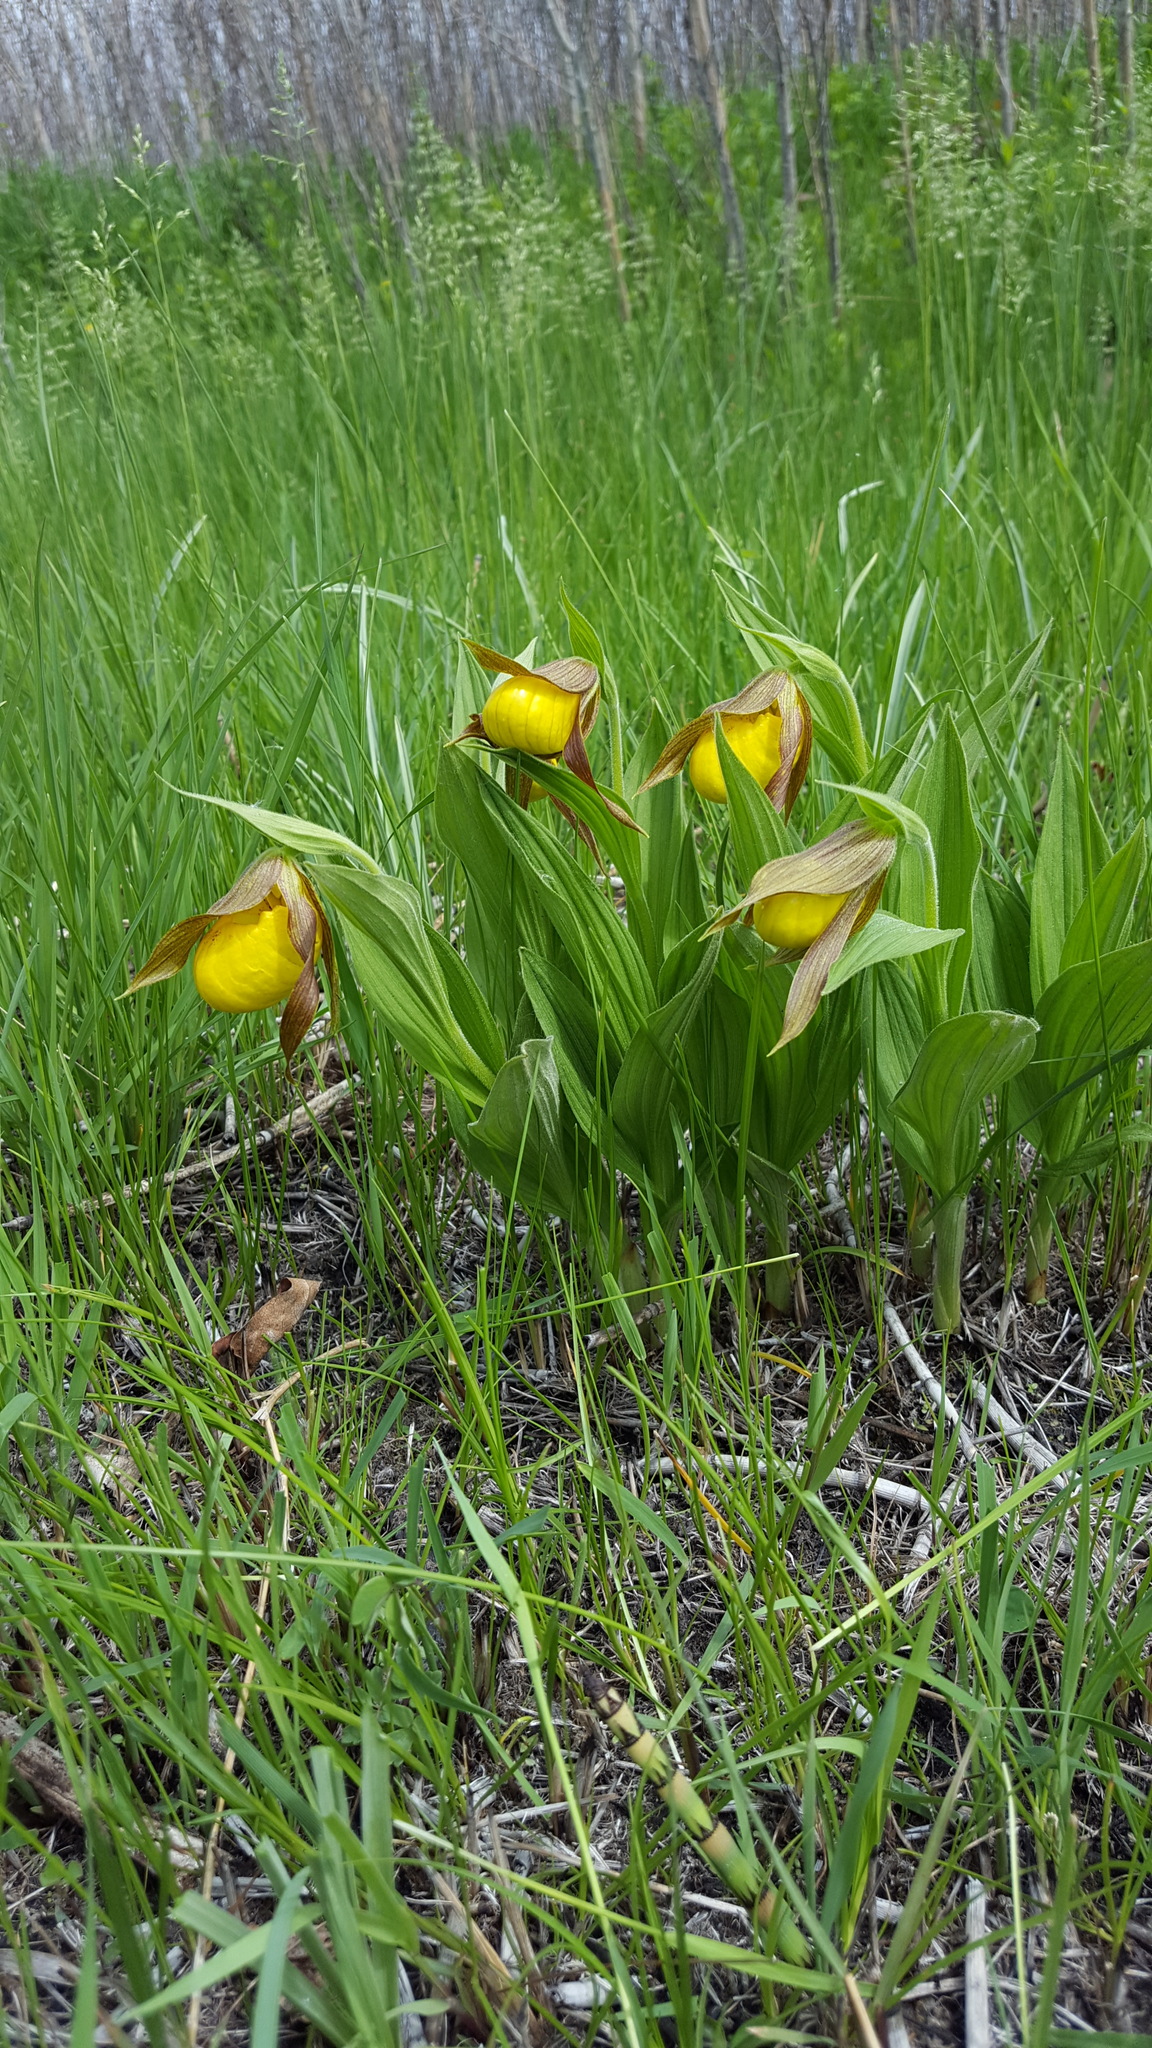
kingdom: Plantae
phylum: Tracheophyta
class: Liliopsida
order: Asparagales
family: Orchidaceae
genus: Cypripedium
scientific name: Cypripedium parviflorum
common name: American yellow lady's-slipper
